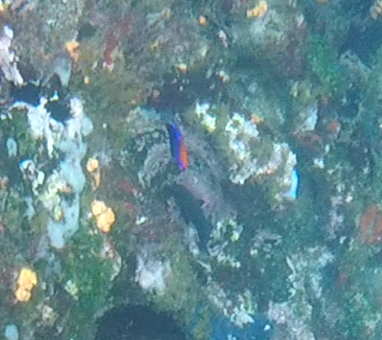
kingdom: Animalia
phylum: Chordata
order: Perciformes
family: Pomacentridae
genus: Stegastes
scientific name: Stegastes beebei
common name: Galapagos ringtail damselfish
